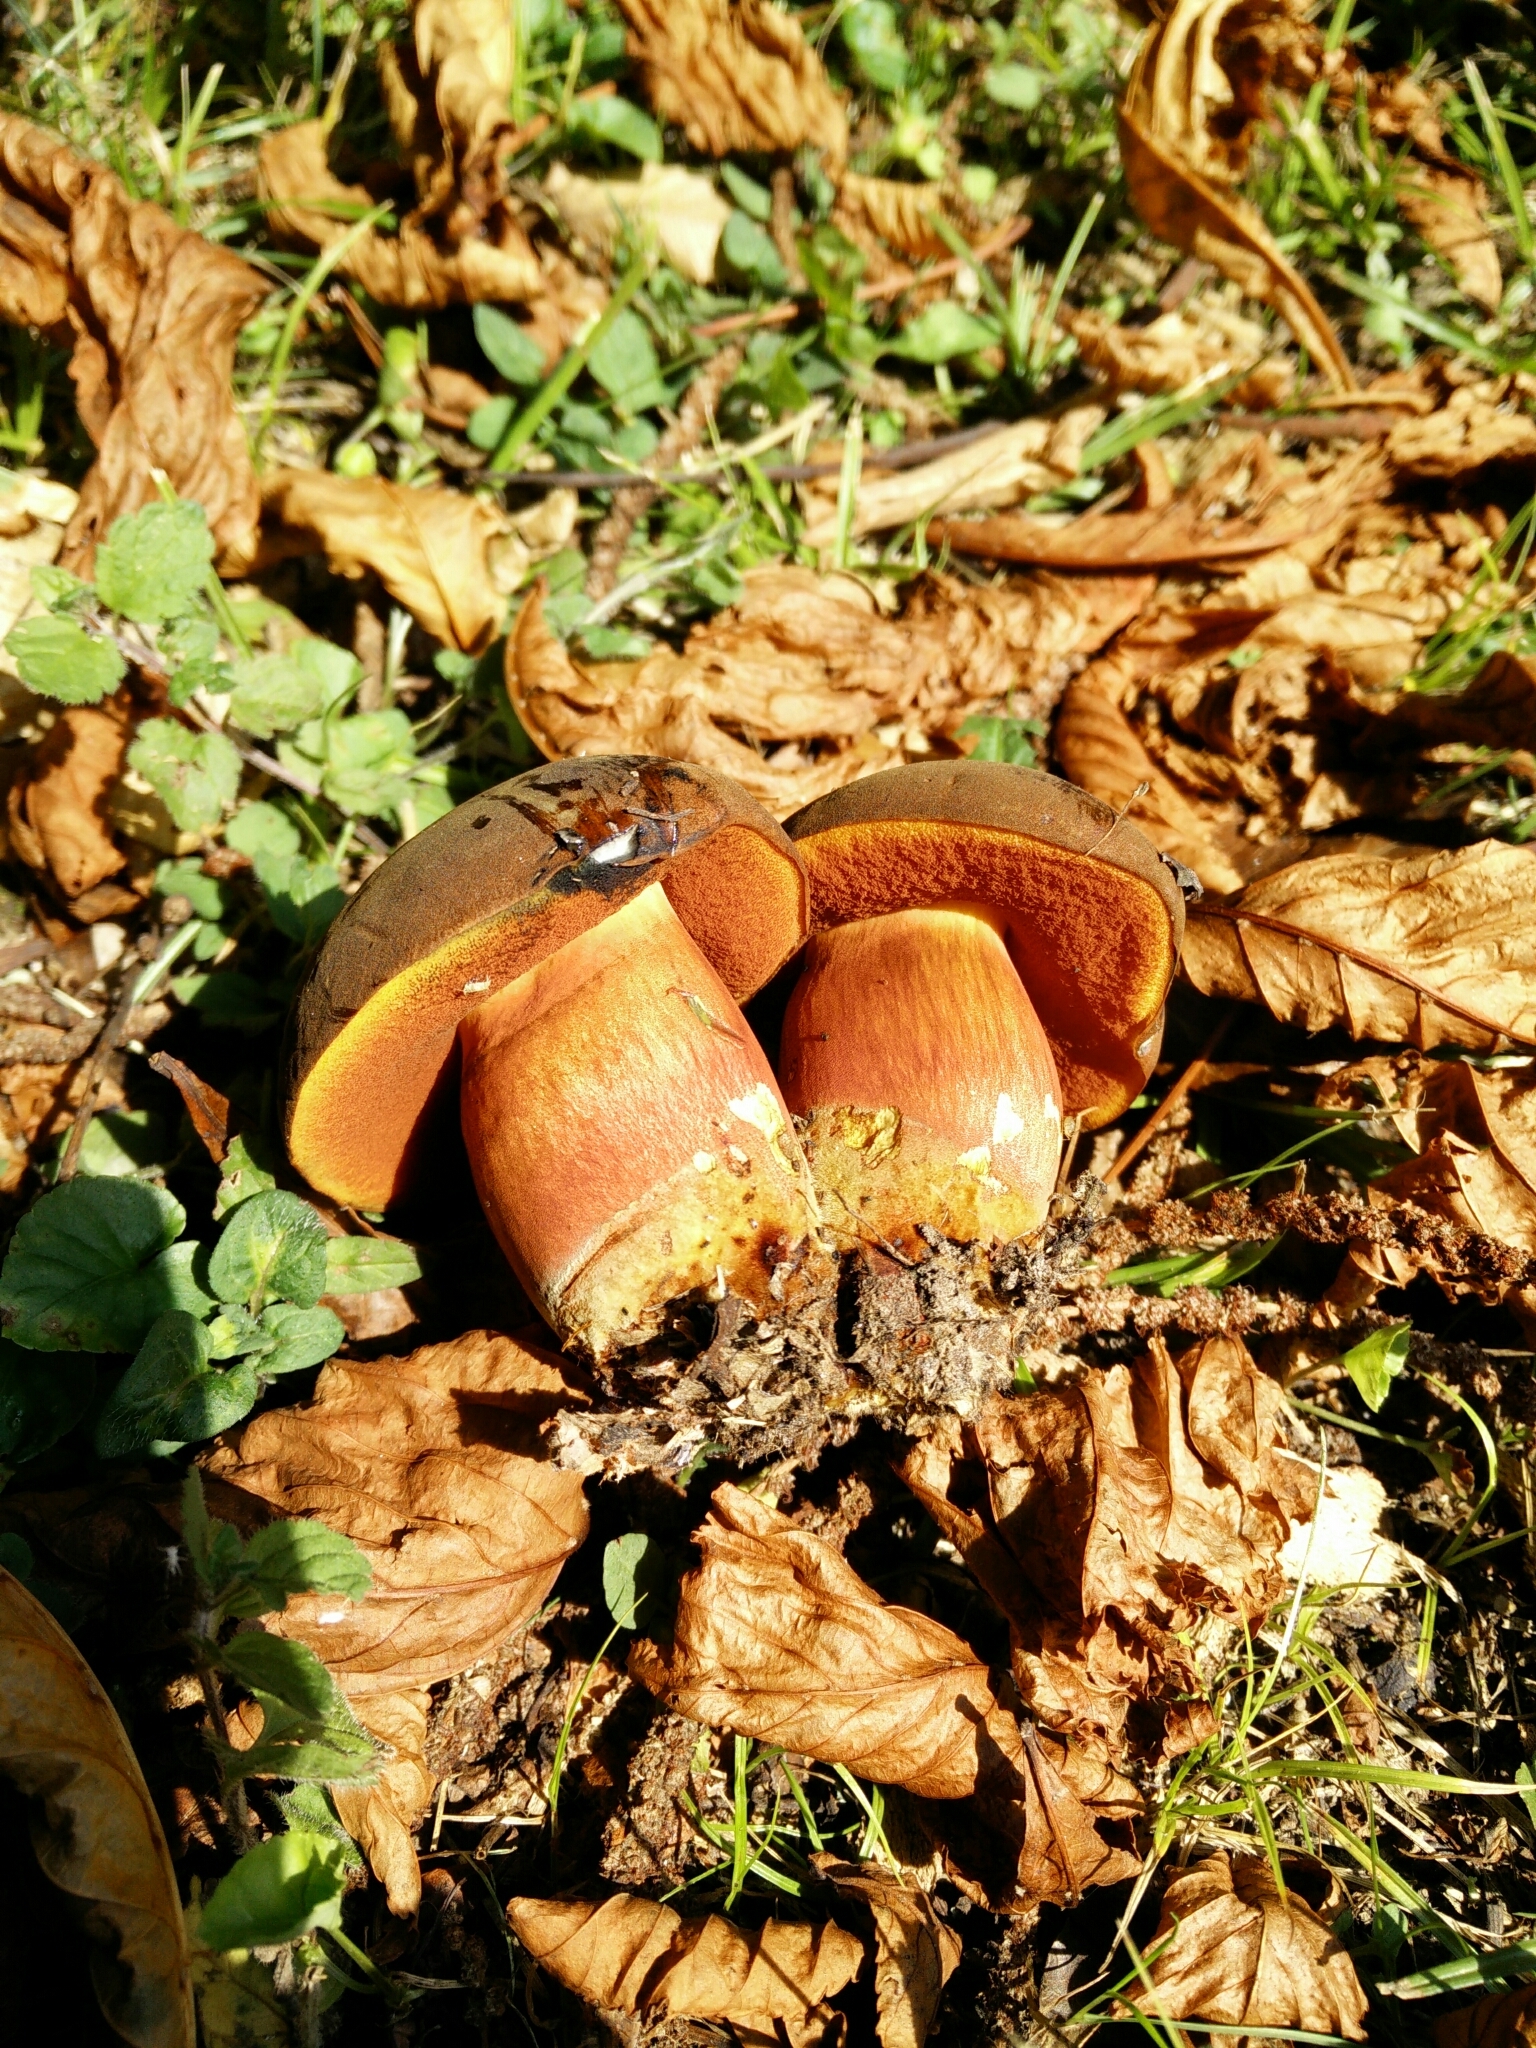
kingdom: Fungi
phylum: Basidiomycota
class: Agaricomycetes
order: Boletales
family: Boletaceae
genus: Neoboletus
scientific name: Neoboletus erythropus
